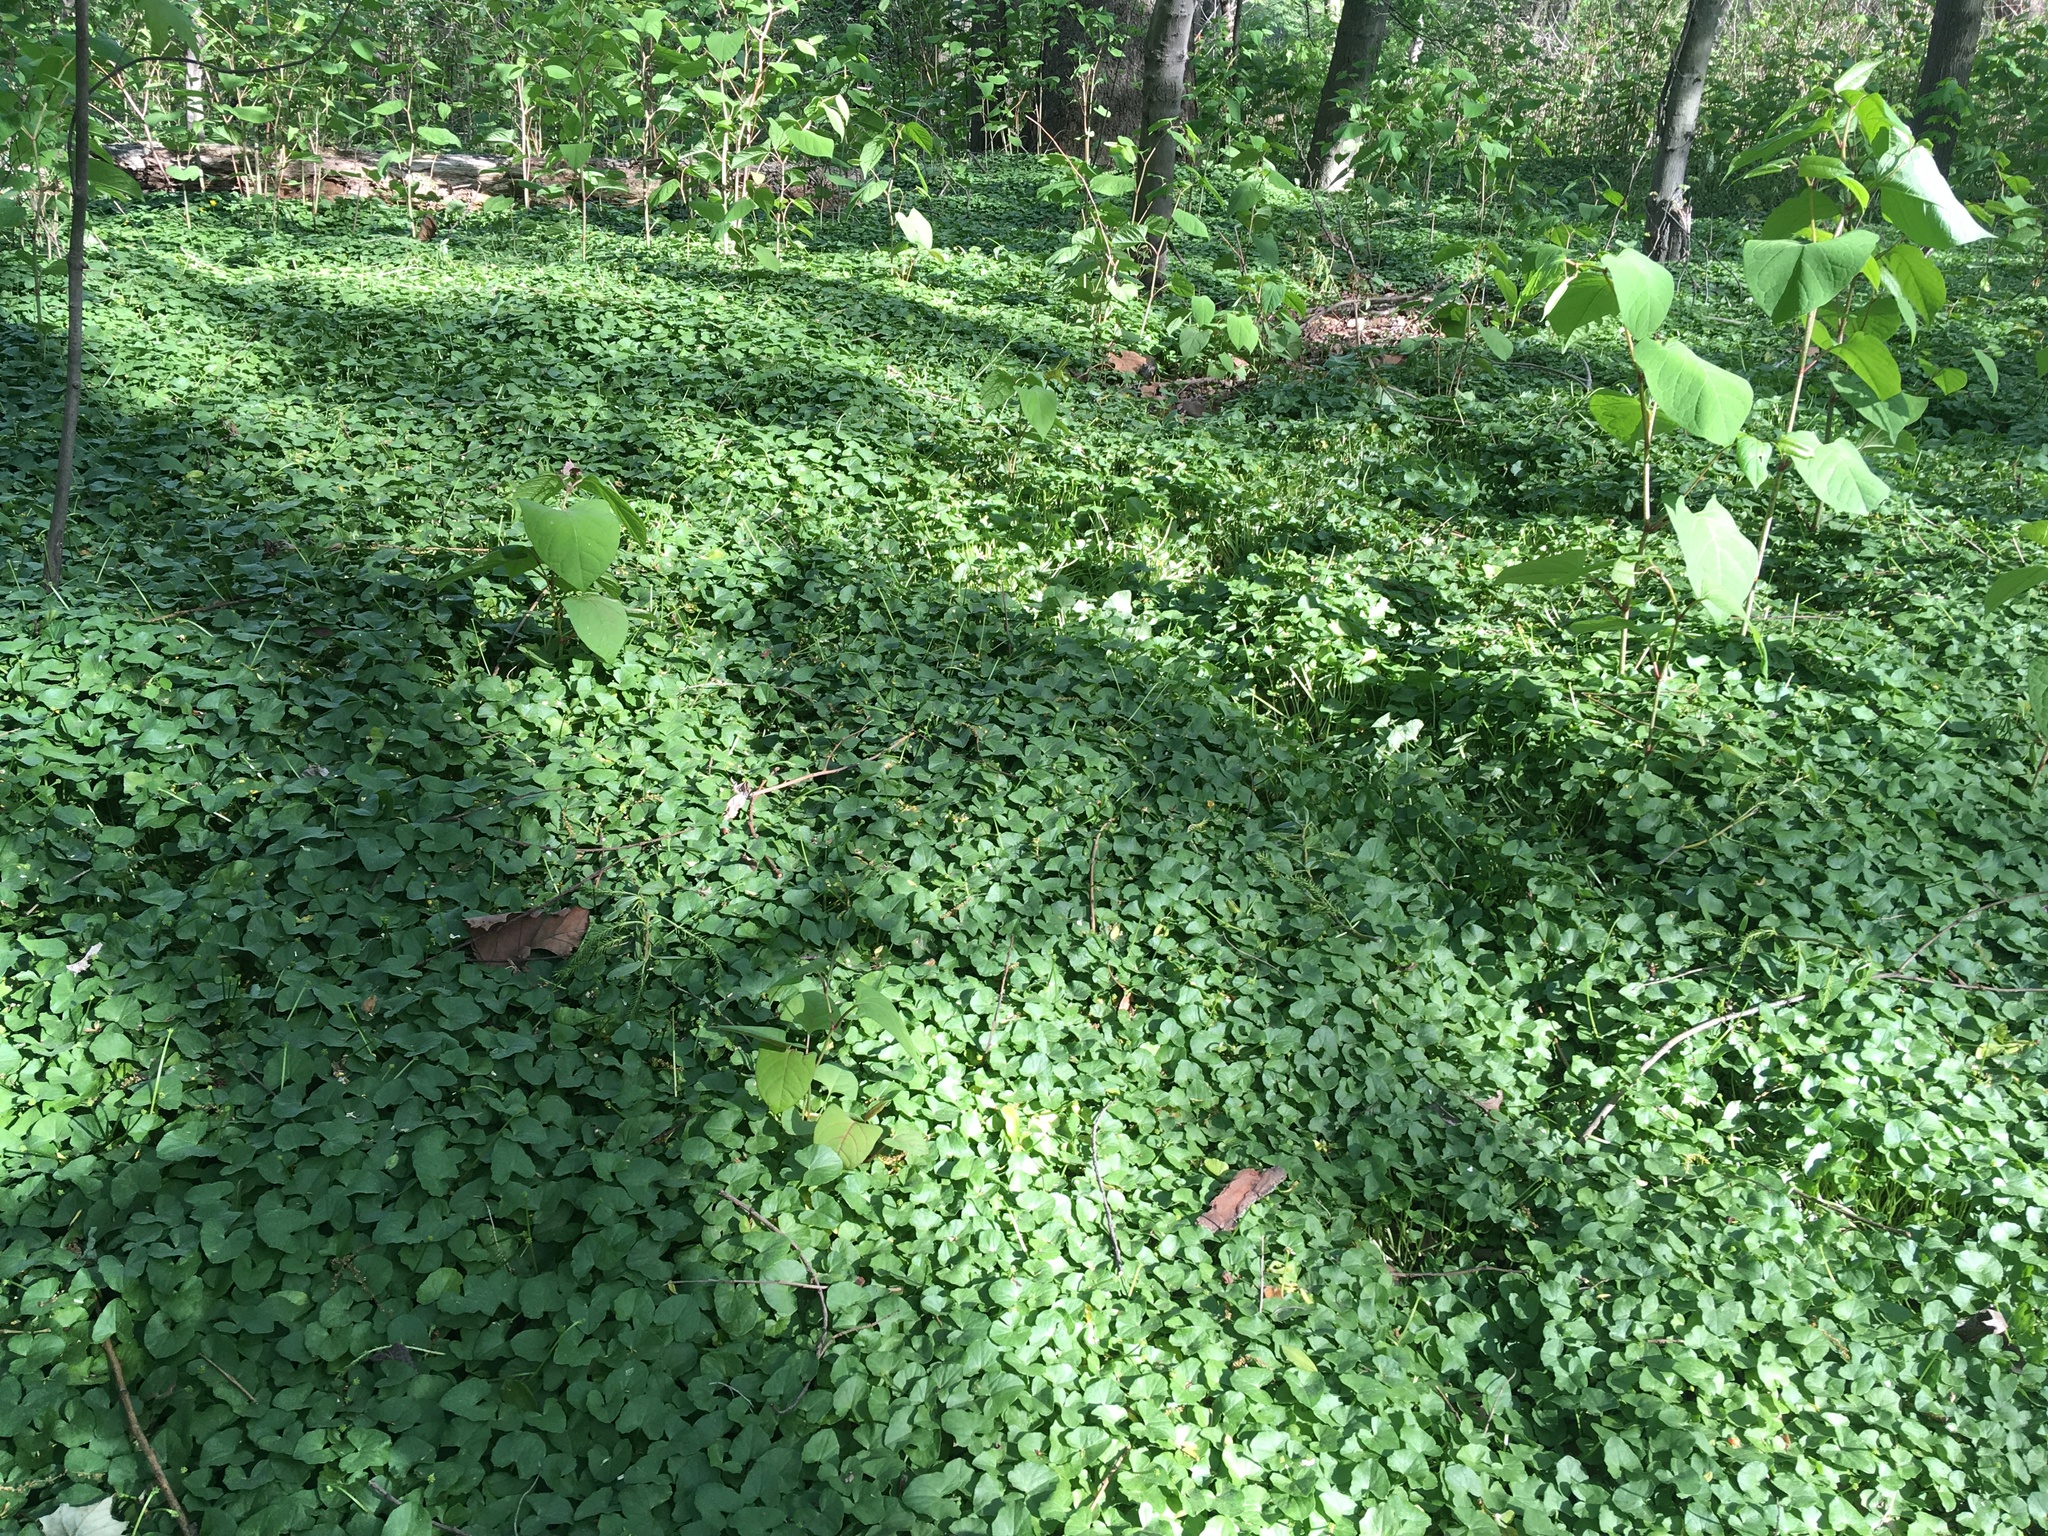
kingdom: Plantae
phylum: Tracheophyta
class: Magnoliopsida
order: Ranunculales
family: Ranunculaceae
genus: Ficaria
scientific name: Ficaria verna
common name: Lesser celandine
